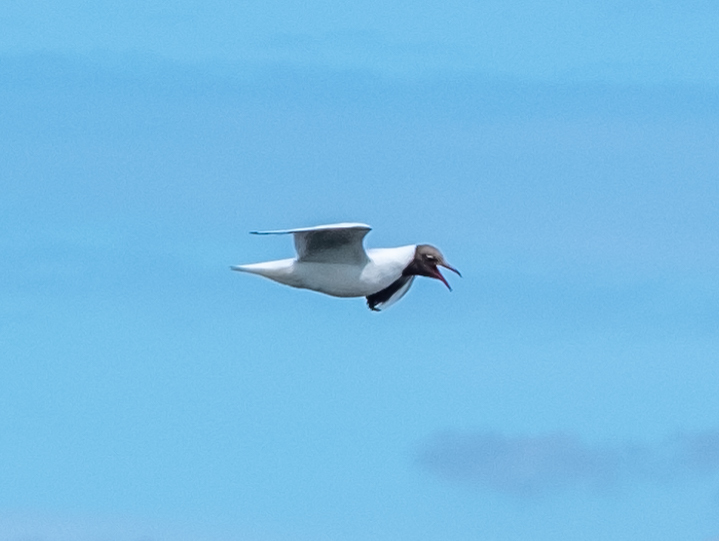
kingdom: Animalia
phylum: Chordata
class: Aves
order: Charadriiformes
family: Laridae
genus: Chroicocephalus
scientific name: Chroicocephalus ridibundus
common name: Black-headed gull
